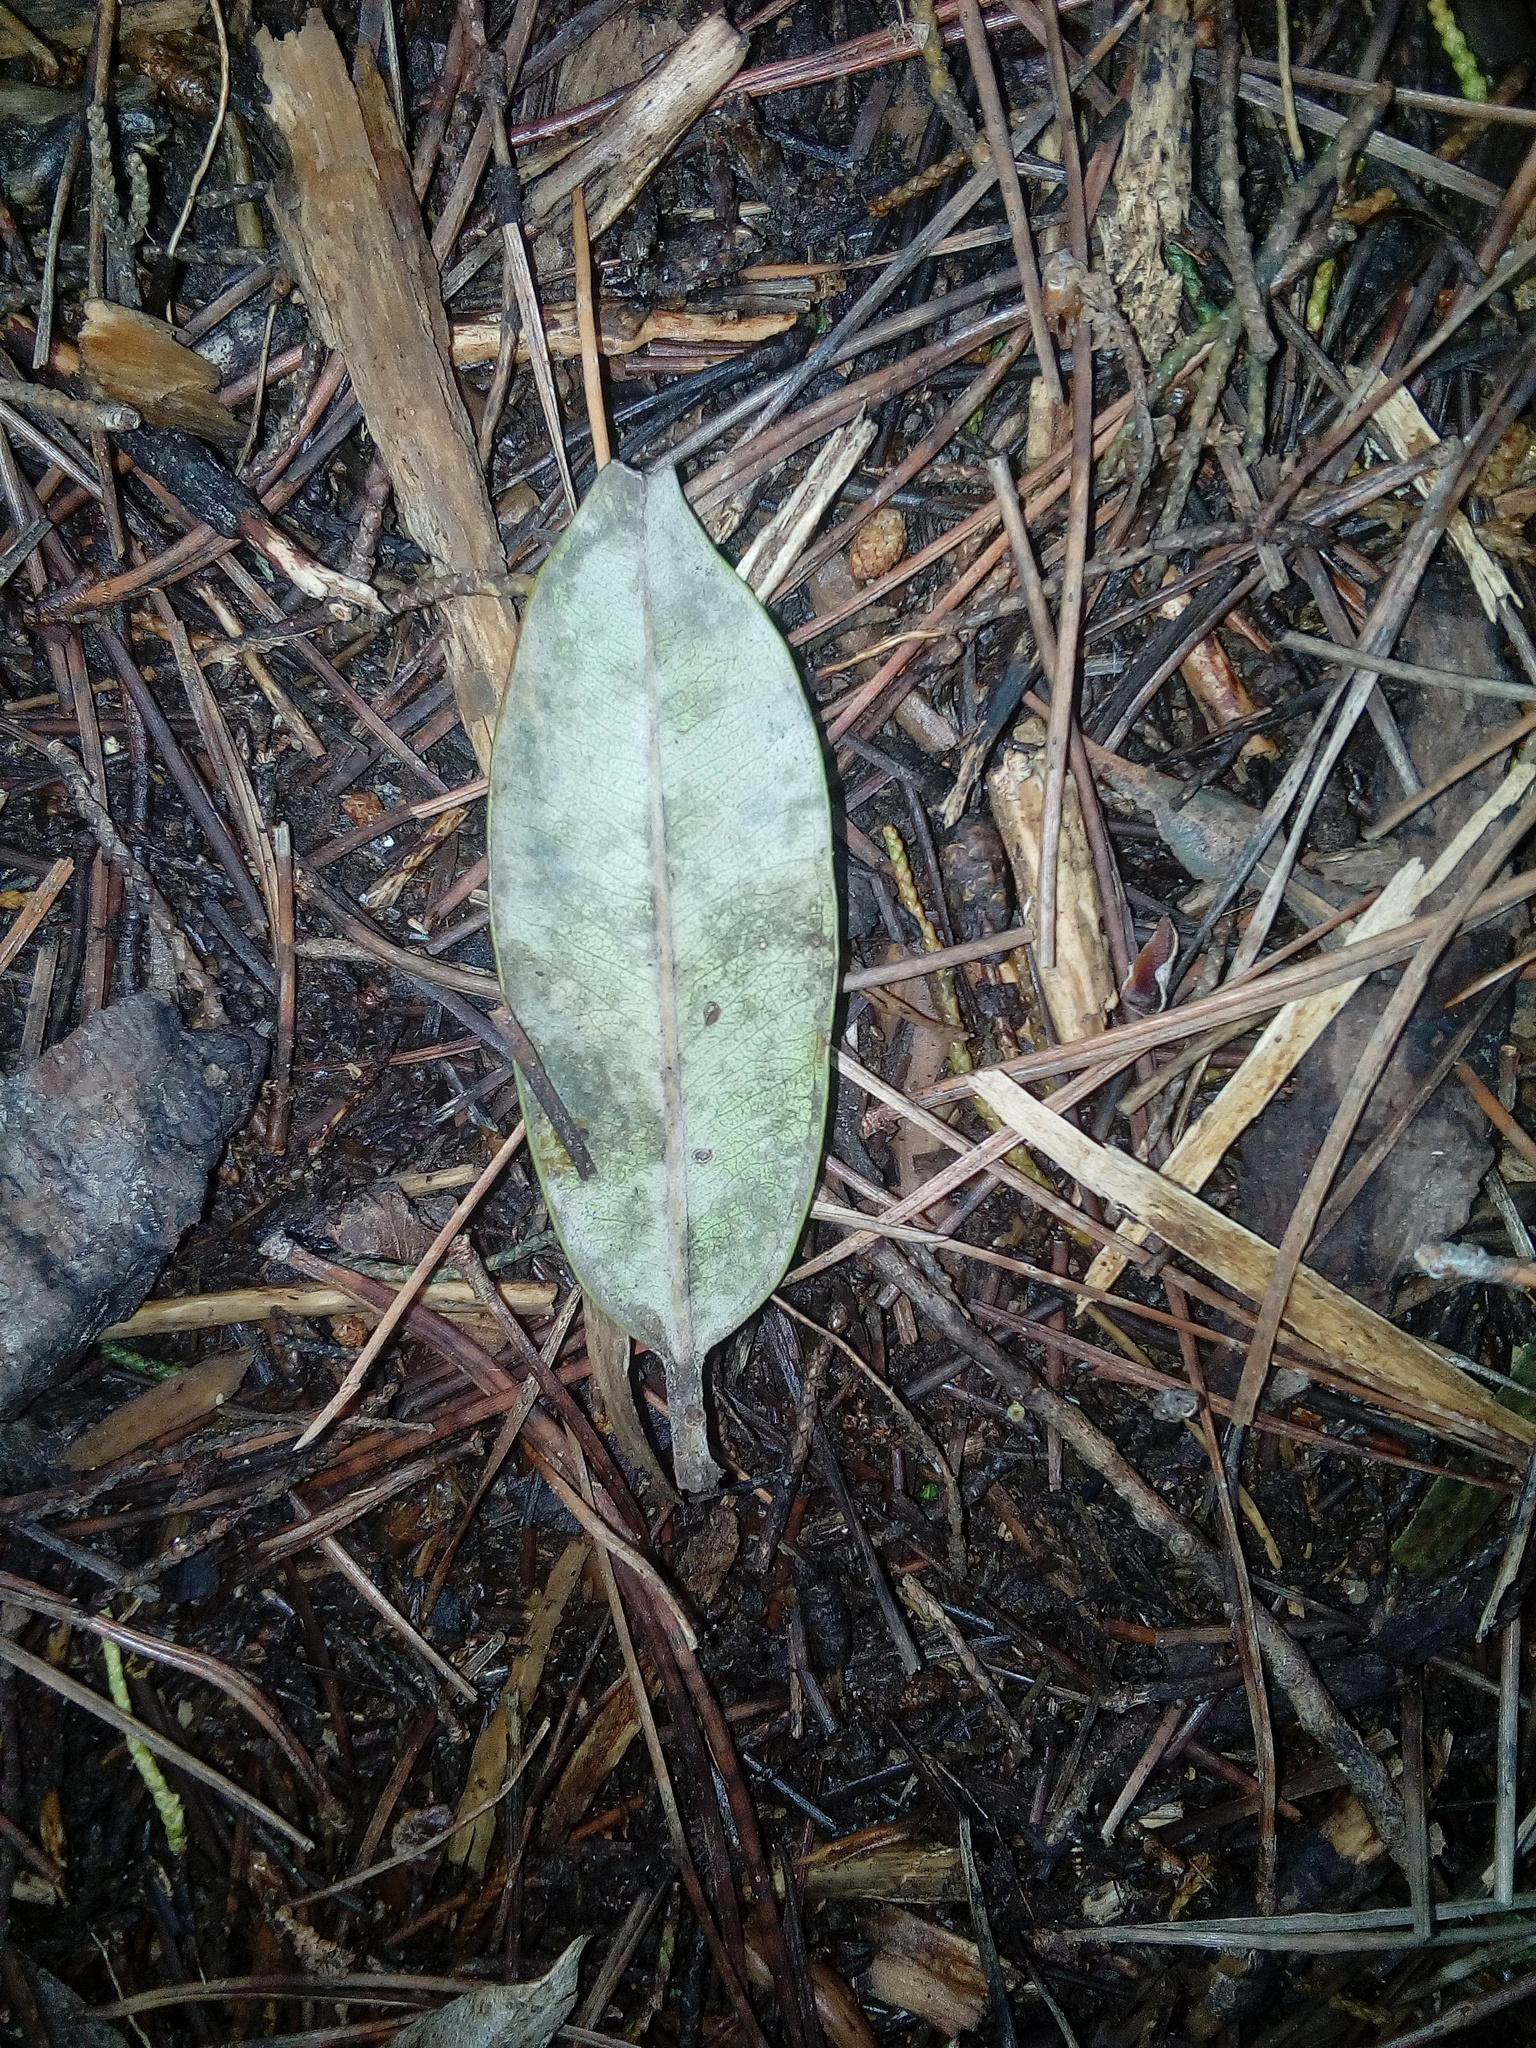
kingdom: Plantae
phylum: Tracheophyta
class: Magnoliopsida
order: Myrtales
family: Myrtaceae
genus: Metrosideros
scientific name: Metrosideros excelsa
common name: New zealand christmastree
